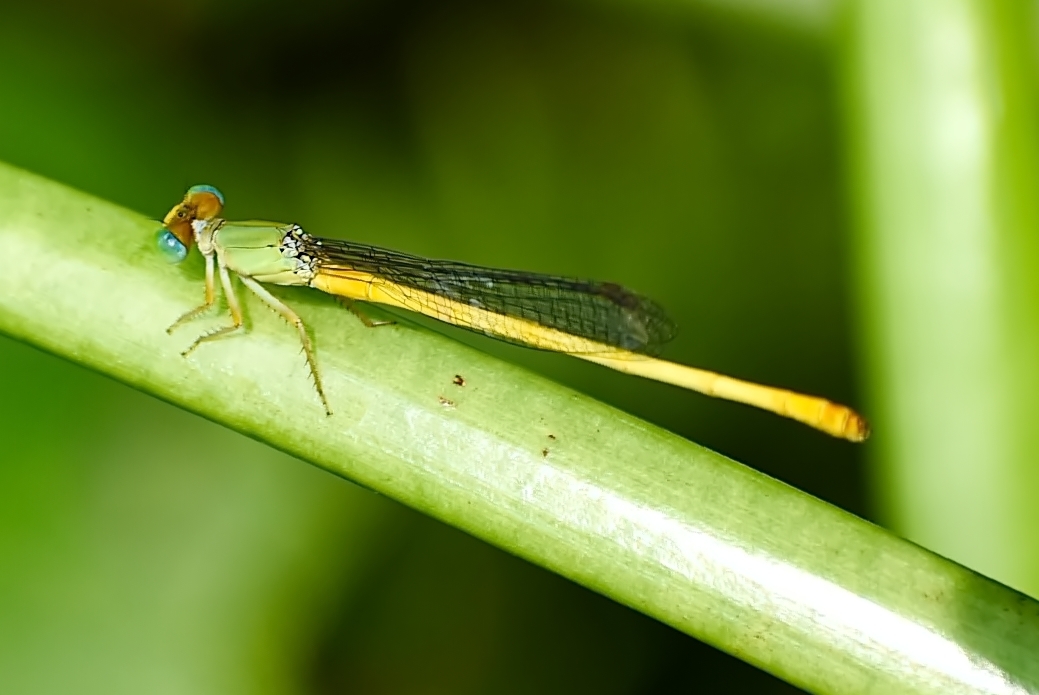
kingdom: Animalia
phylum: Arthropoda
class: Insecta
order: Odonata
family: Coenagrionidae
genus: Ceriagrion
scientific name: Ceriagrion coromandelianum
